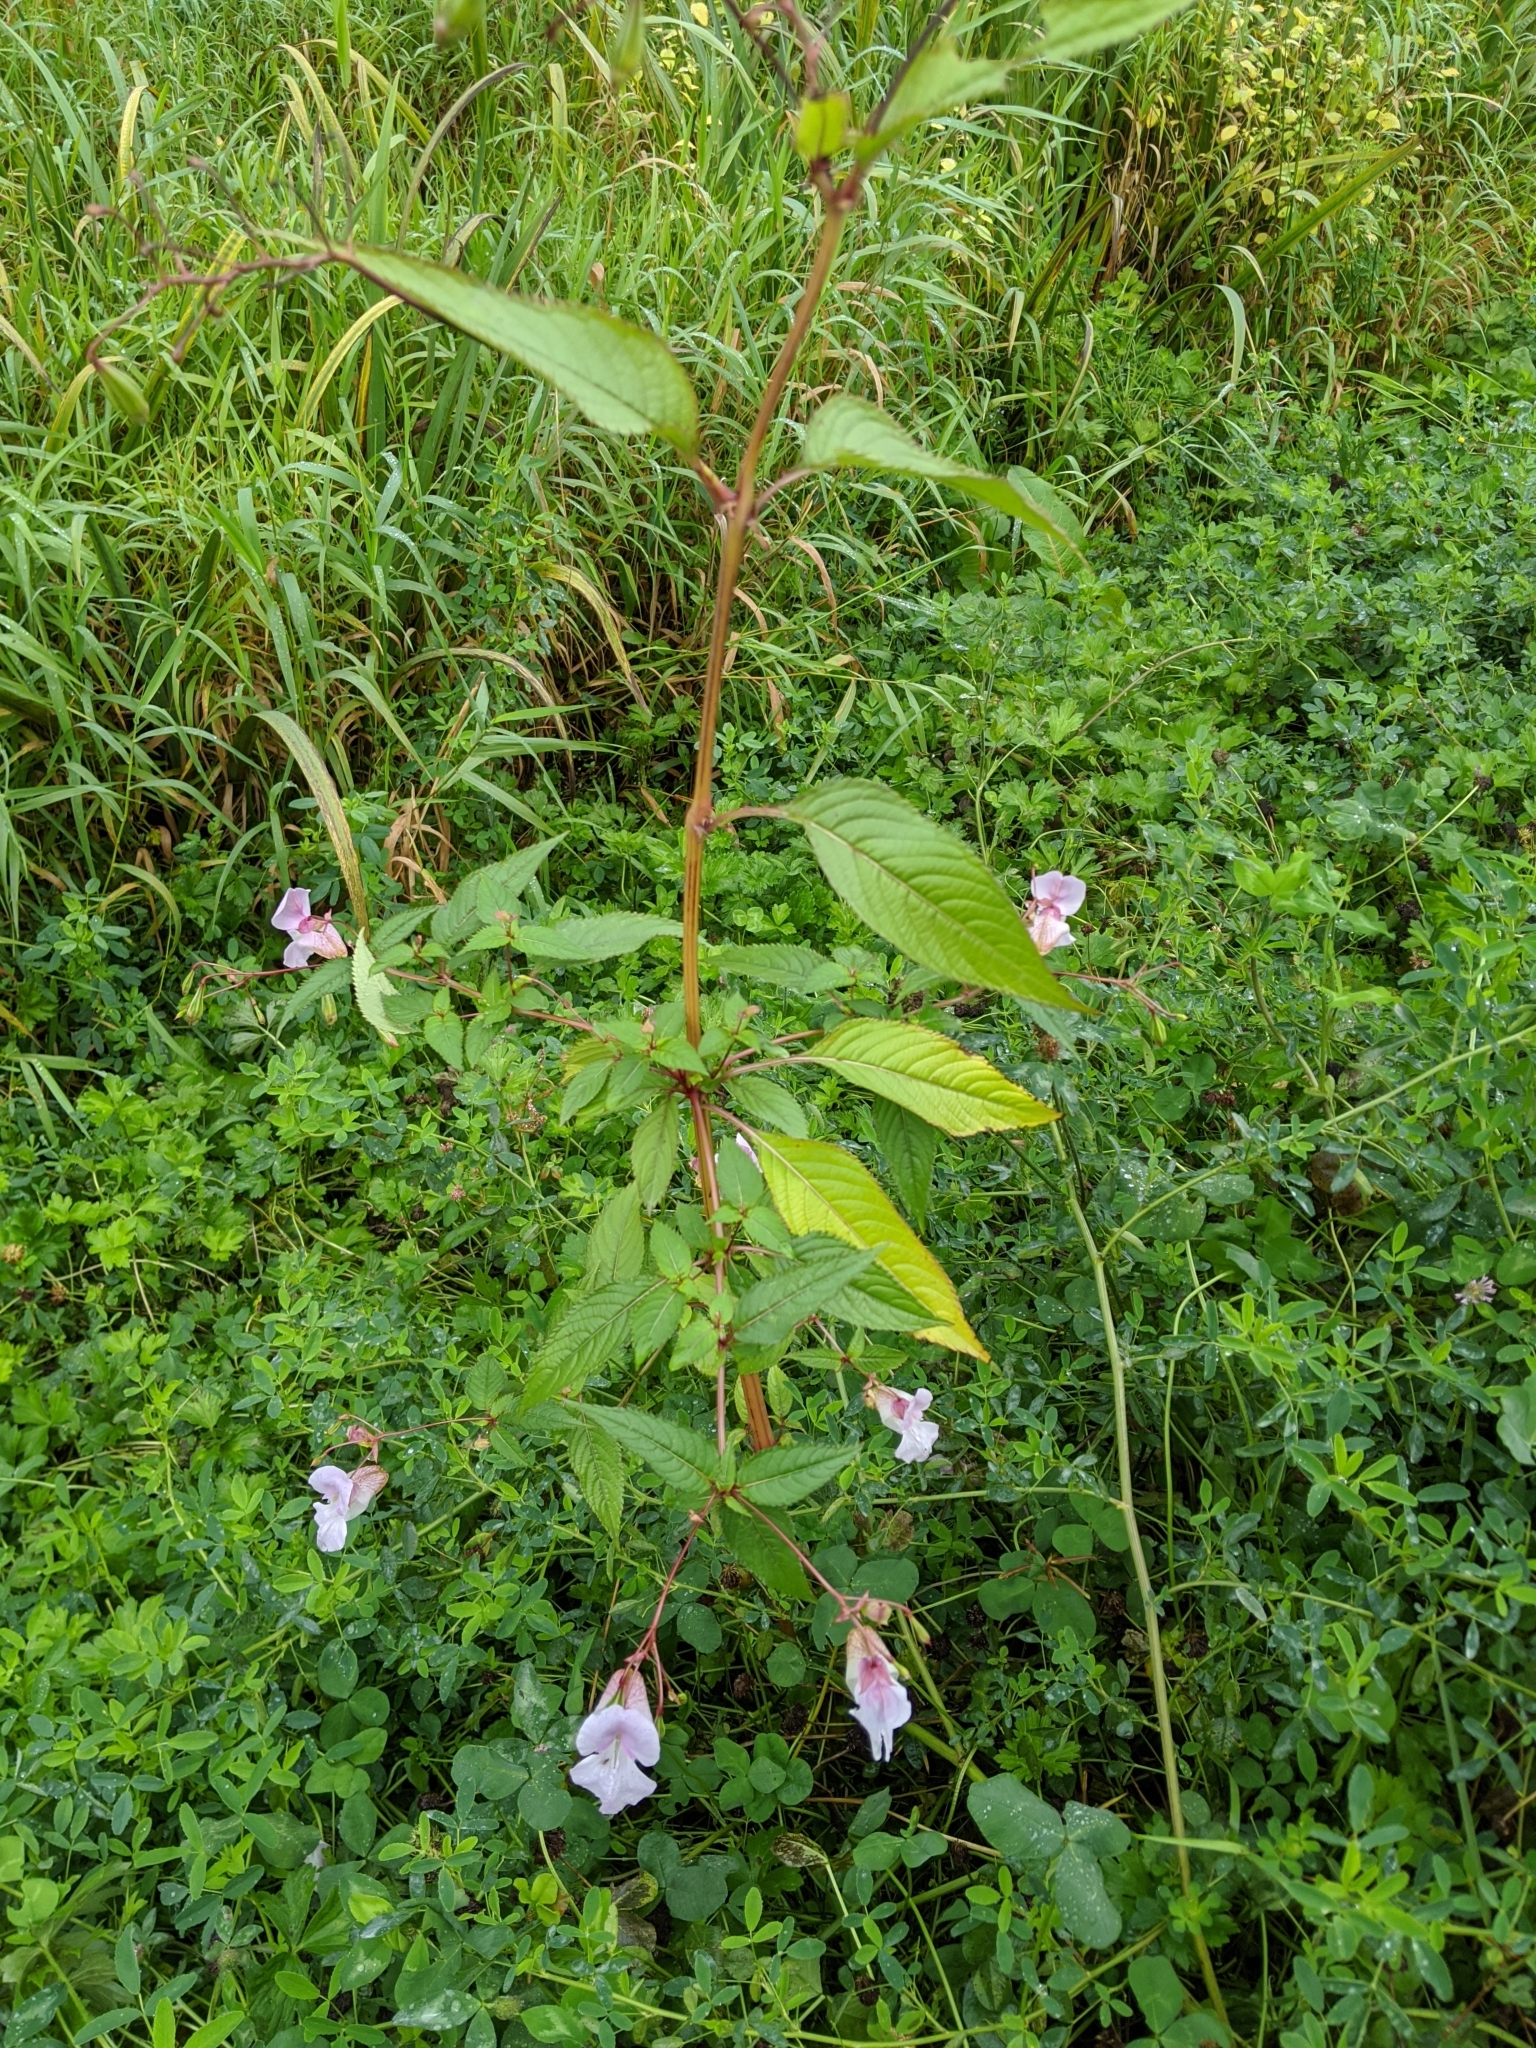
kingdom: Plantae
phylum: Tracheophyta
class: Magnoliopsida
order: Ericales
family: Balsaminaceae
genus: Impatiens
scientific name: Impatiens glandulifera
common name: Himalayan balsam
